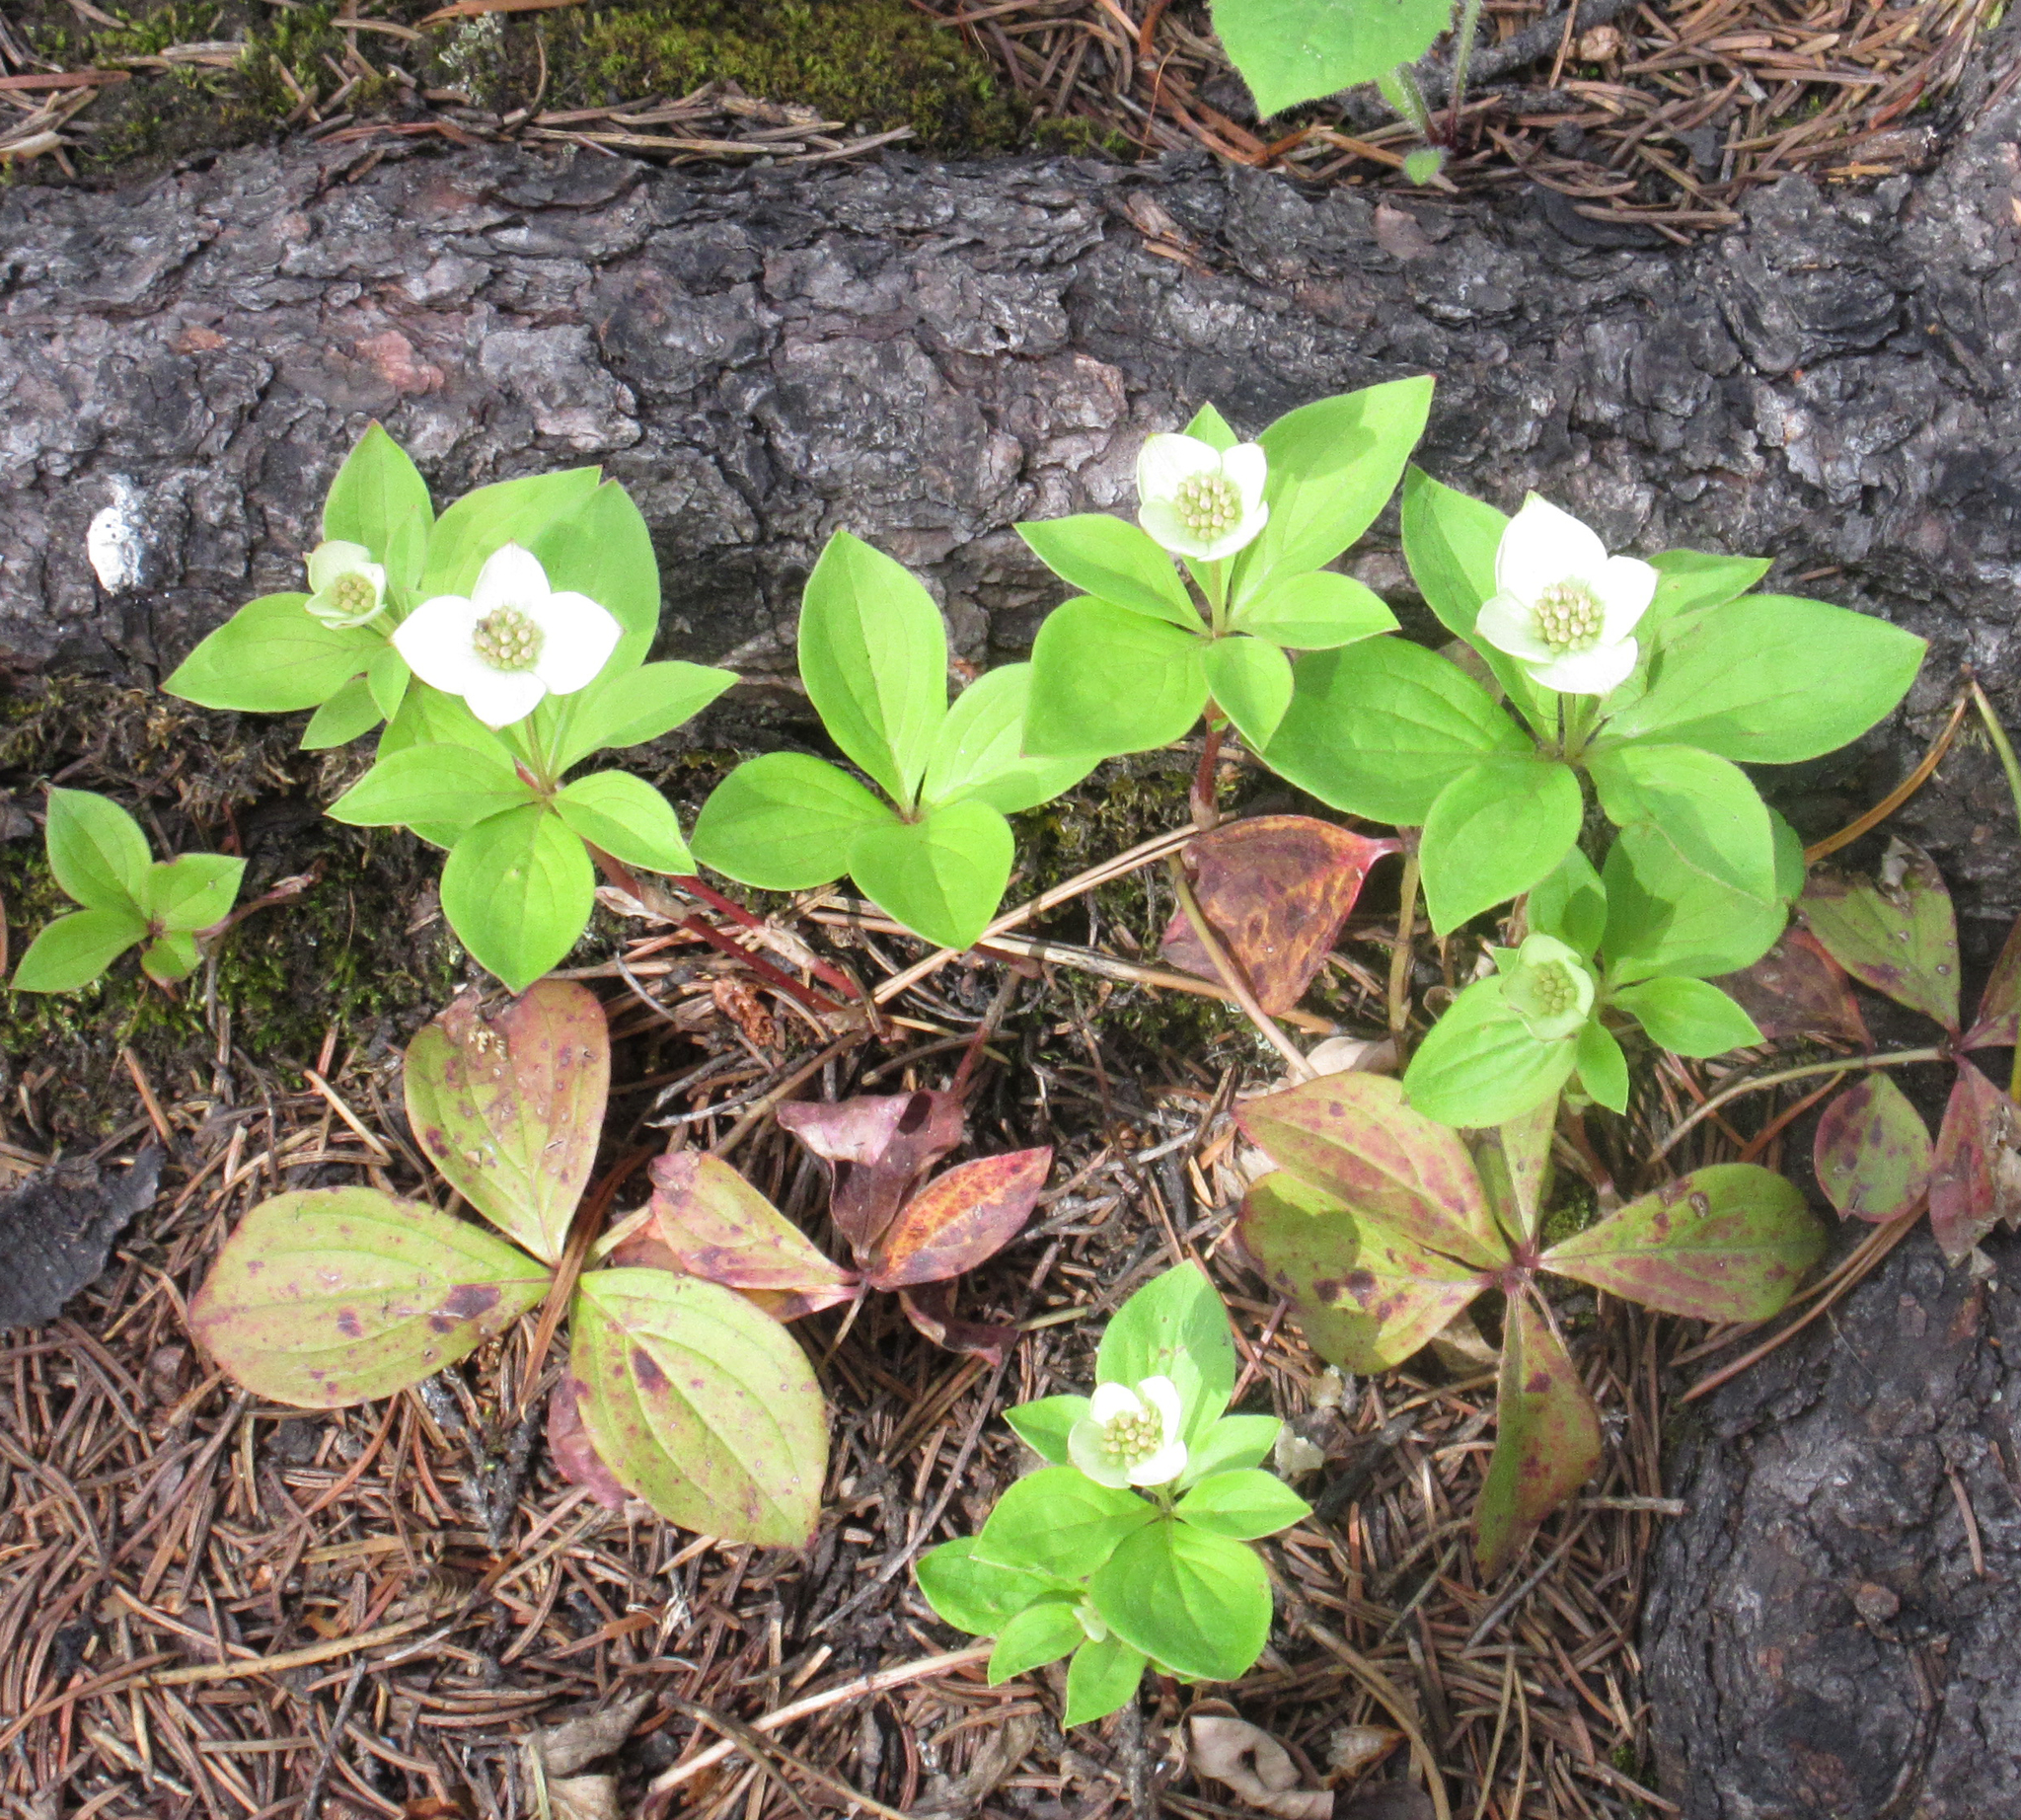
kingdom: Plantae
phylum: Tracheophyta
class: Magnoliopsida
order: Cornales
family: Cornaceae
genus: Cornus
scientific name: Cornus canadensis
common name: Creeping dogwood
